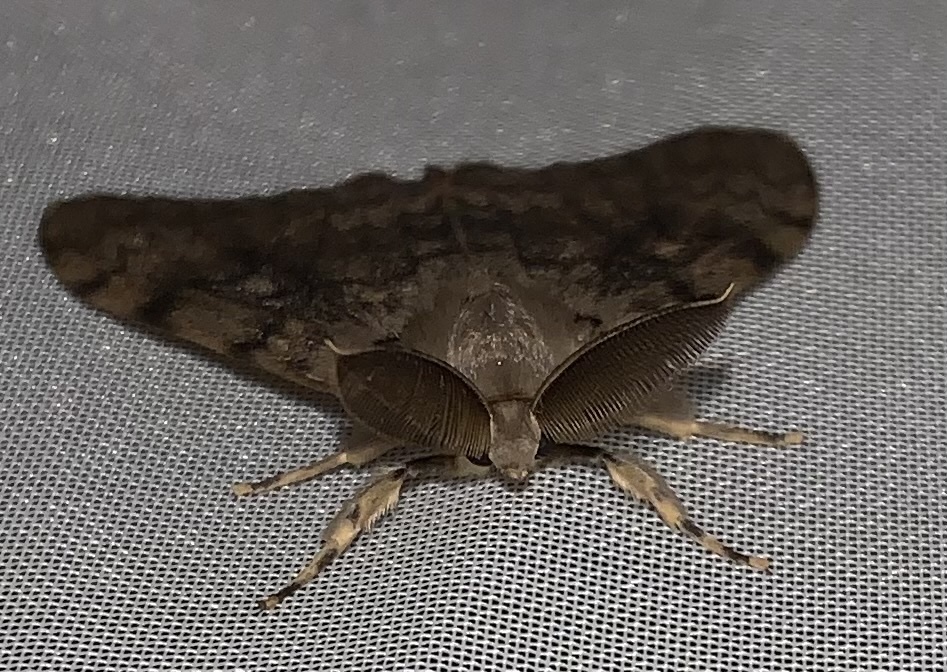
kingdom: Animalia
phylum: Arthropoda
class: Insecta
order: Lepidoptera
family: Erebidae
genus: Lymantria
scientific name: Lymantria dispar
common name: Gypsy moth
